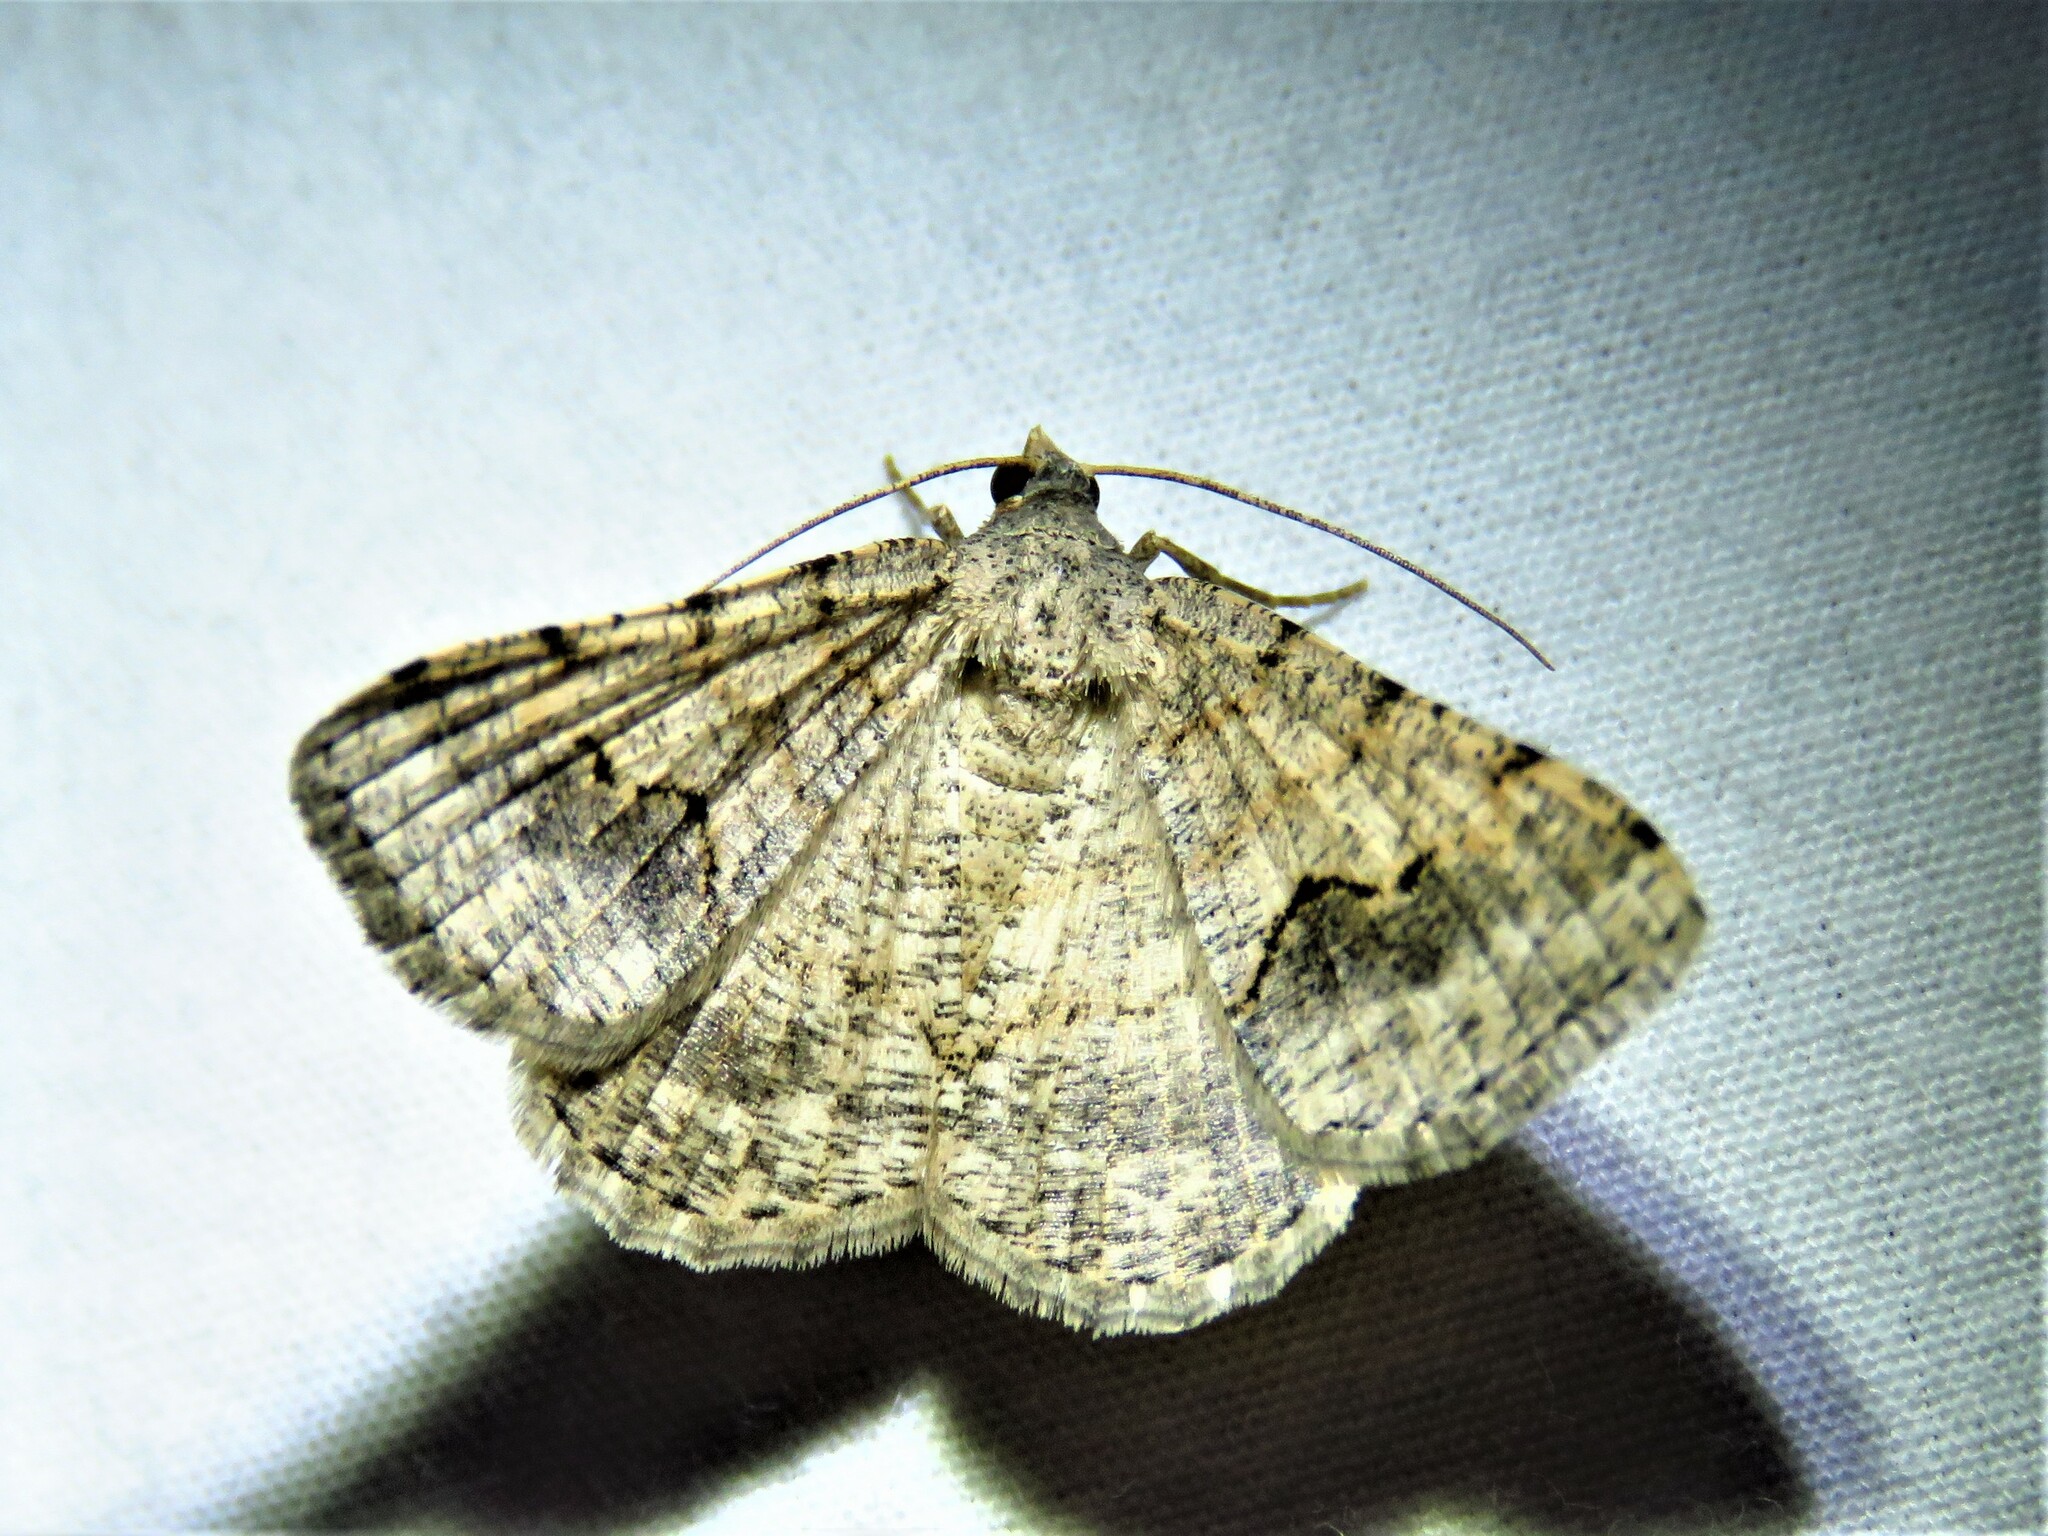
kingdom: Animalia
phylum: Arthropoda
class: Insecta
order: Lepidoptera
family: Geometridae
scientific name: Geometridae
